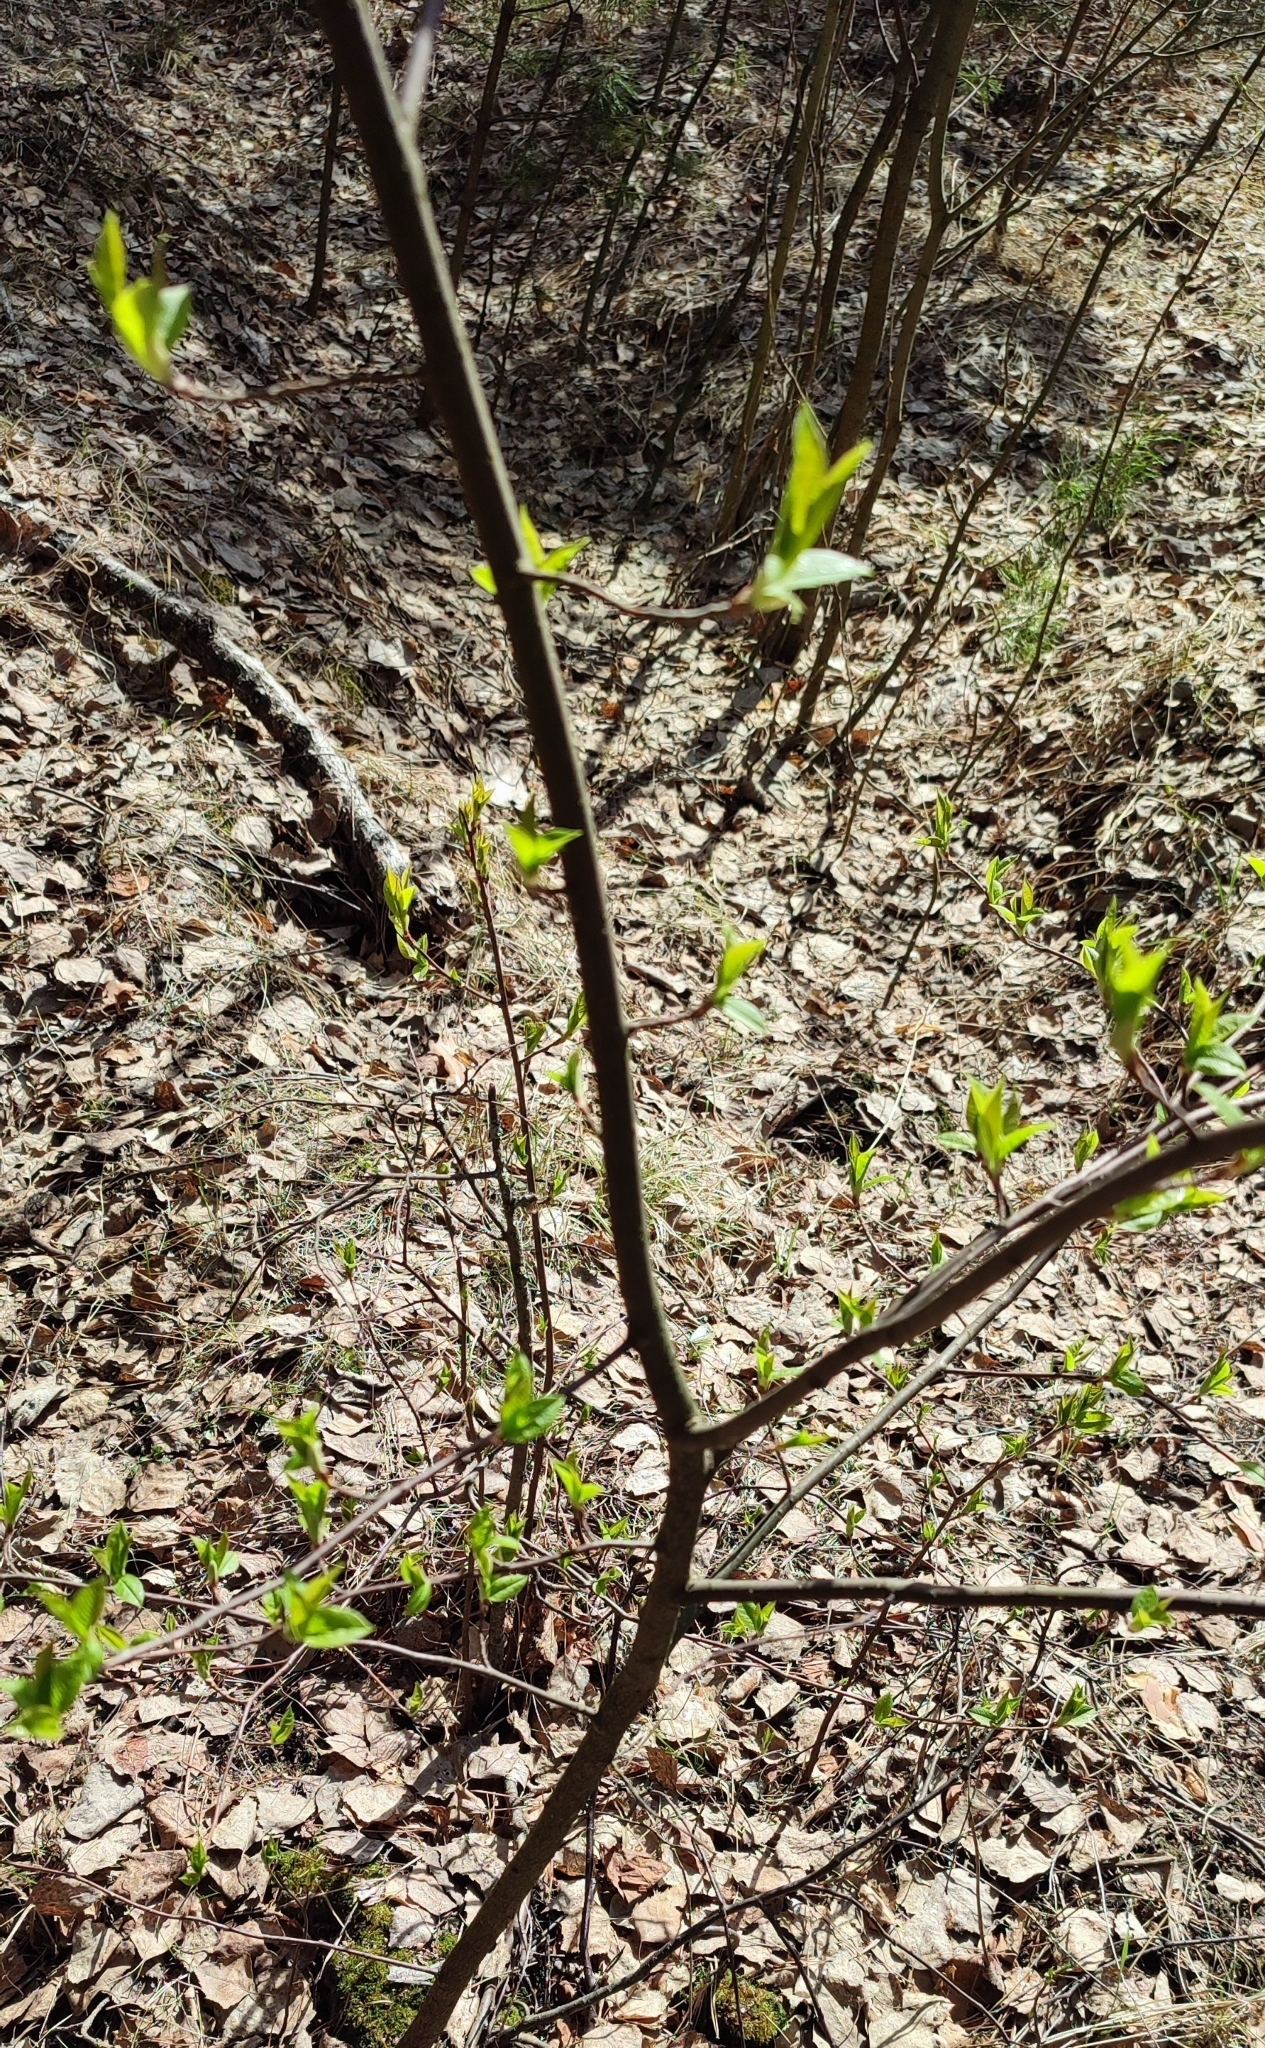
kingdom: Plantae
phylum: Tracheophyta
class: Magnoliopsida
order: Rosales
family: Rosaceae
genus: Prunus
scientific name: Prunus padus
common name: Bird cherry
